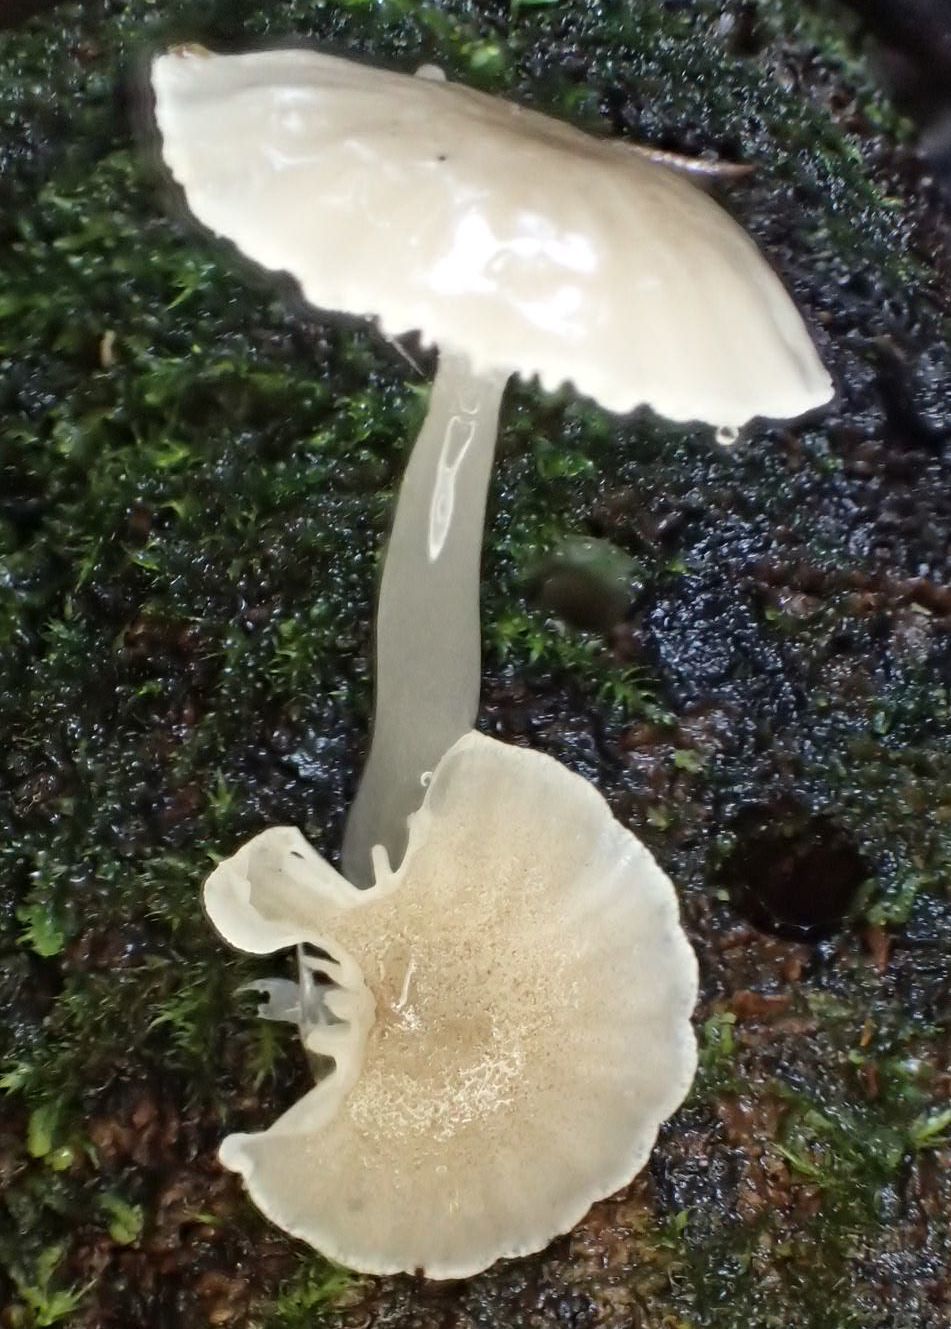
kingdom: Fungi
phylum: Basidiomycota
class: Agaricomycetes
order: Agaricales
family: Mycenaceae
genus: Roridomyces
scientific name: Roridomyces austrororidus
